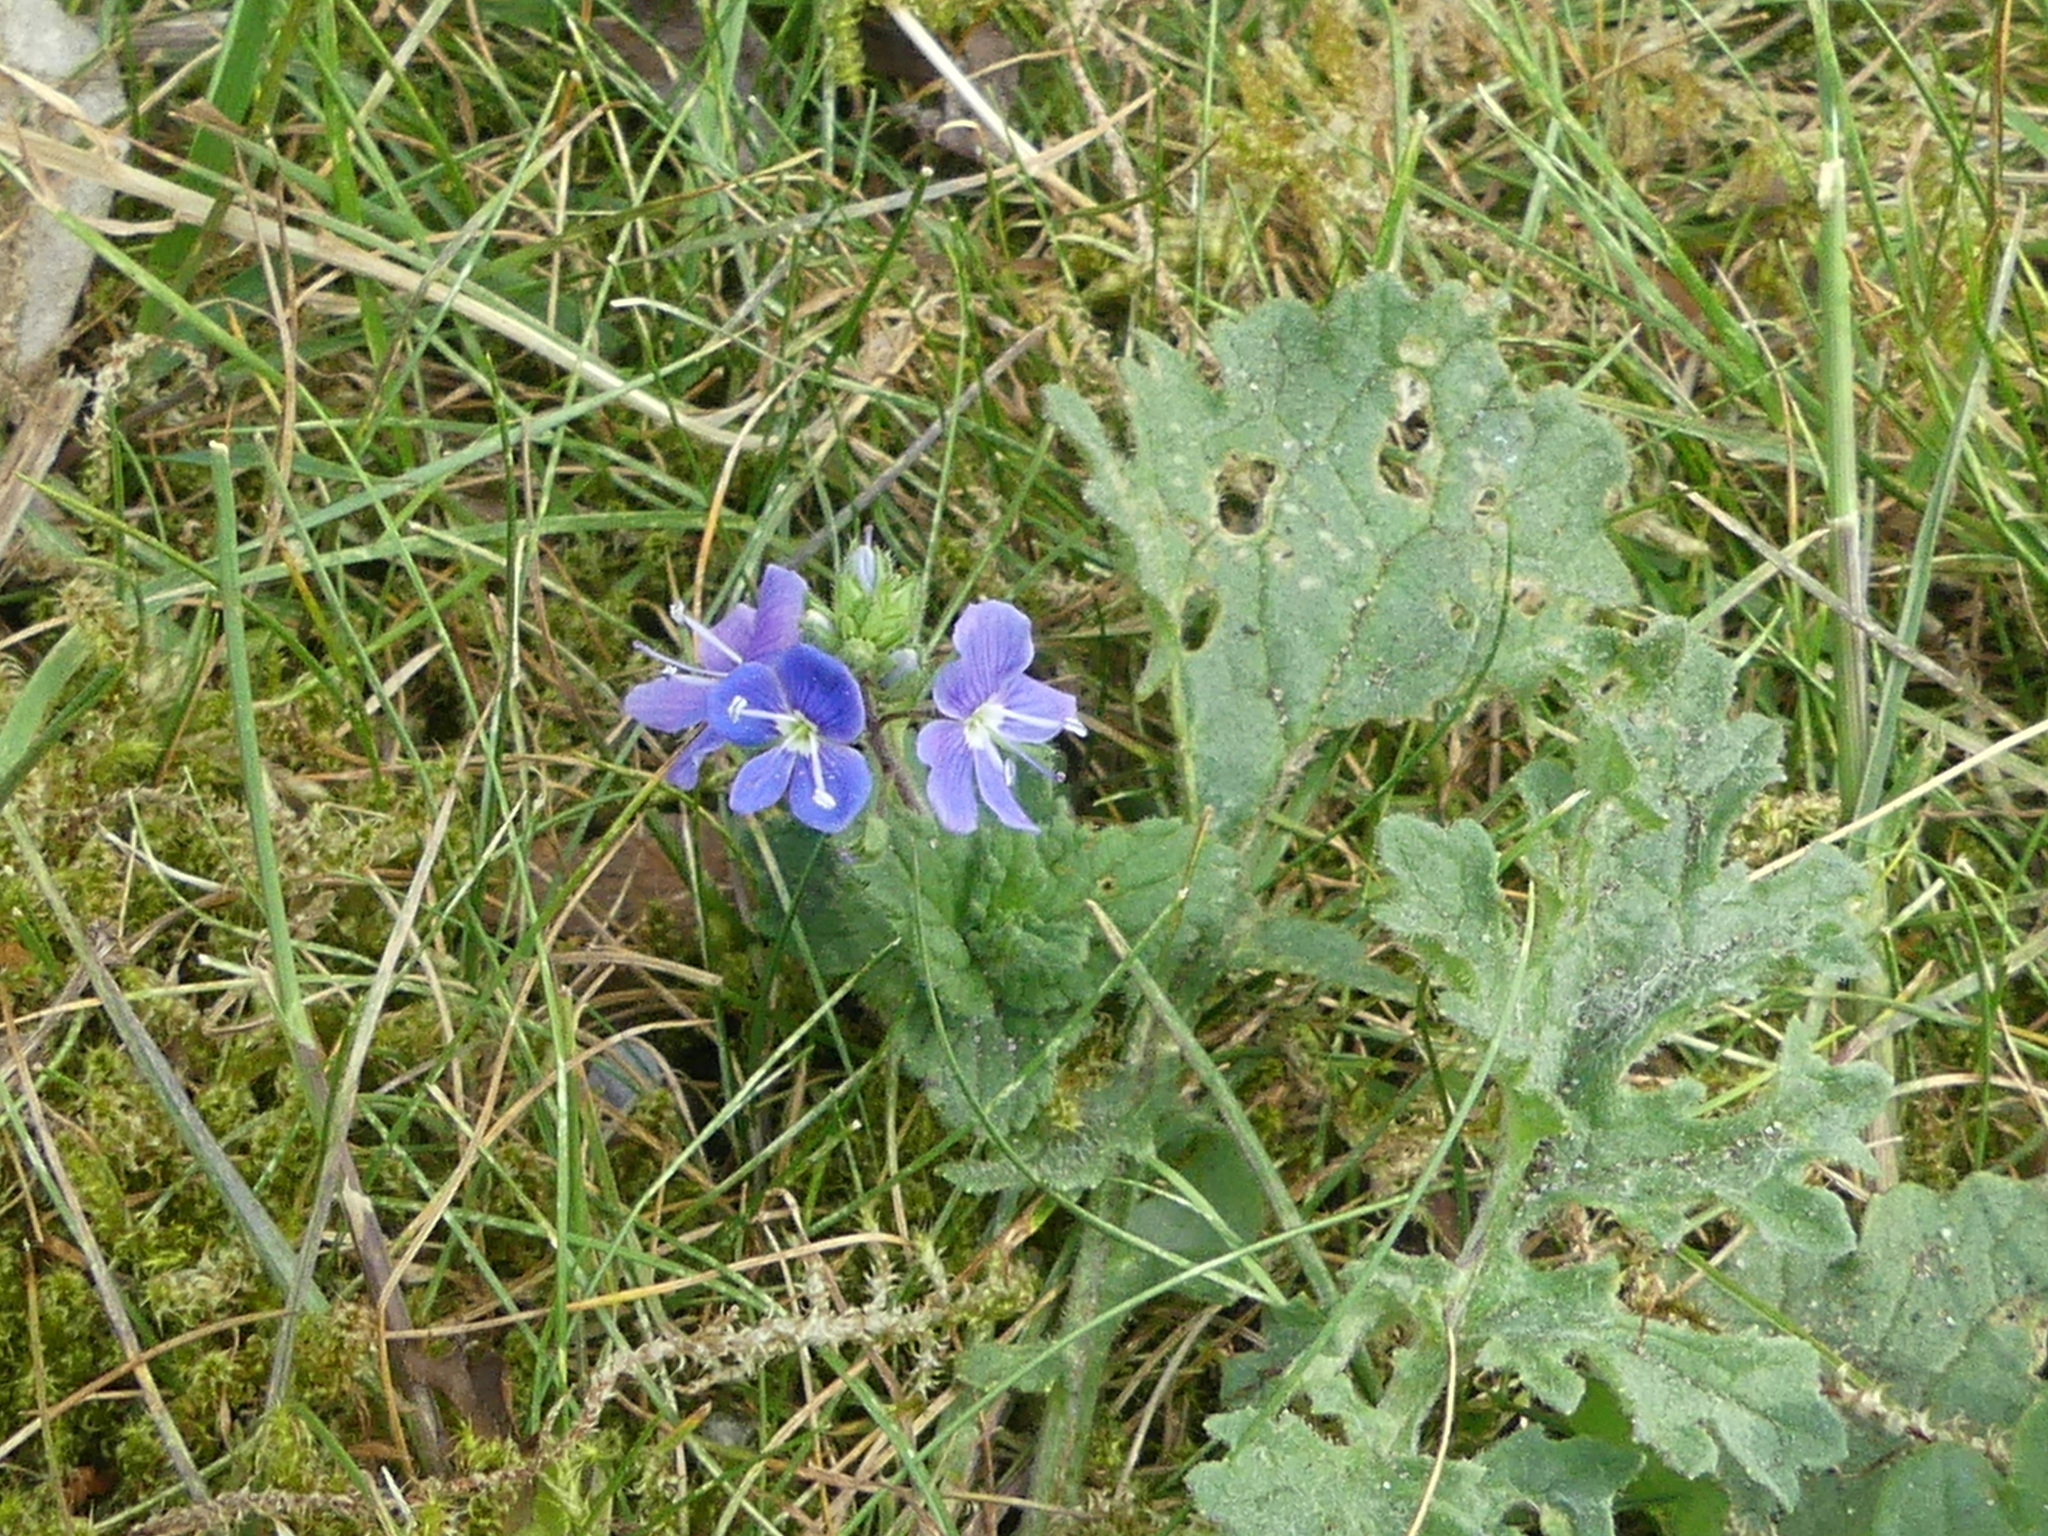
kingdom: Plantae
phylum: Tracheophyta
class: Magnoliopsida
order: Lamiales
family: Plantaginaceae
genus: Veronica
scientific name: Veronica chamaedrys
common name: Germander speedwell
